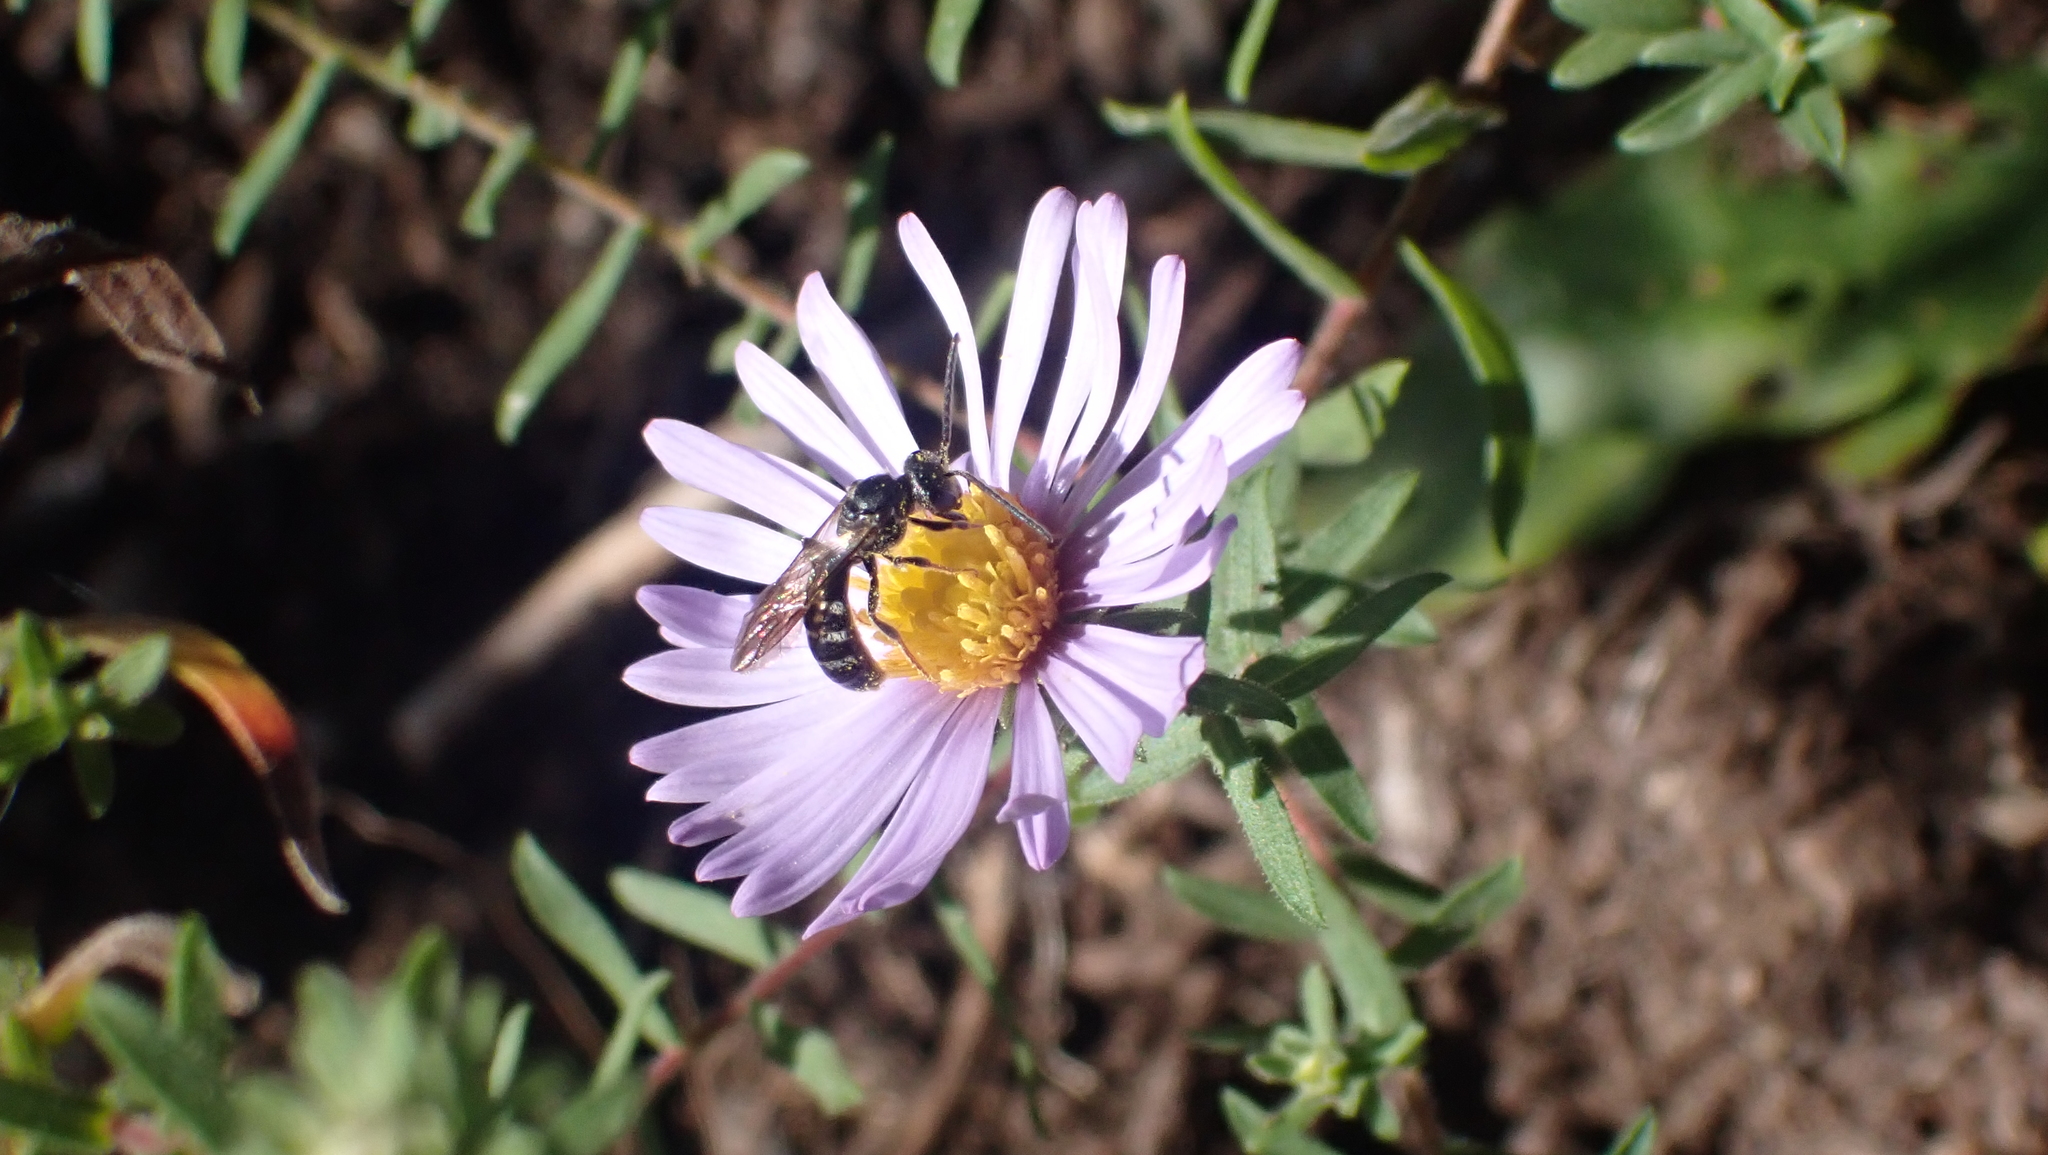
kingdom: Animalia
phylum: Arthropoda
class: Insecta
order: Hymenoptera
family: Halictidae
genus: Lasioglossum
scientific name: Lasioglossum fuscipenne
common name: Brown-winged sweat bee
